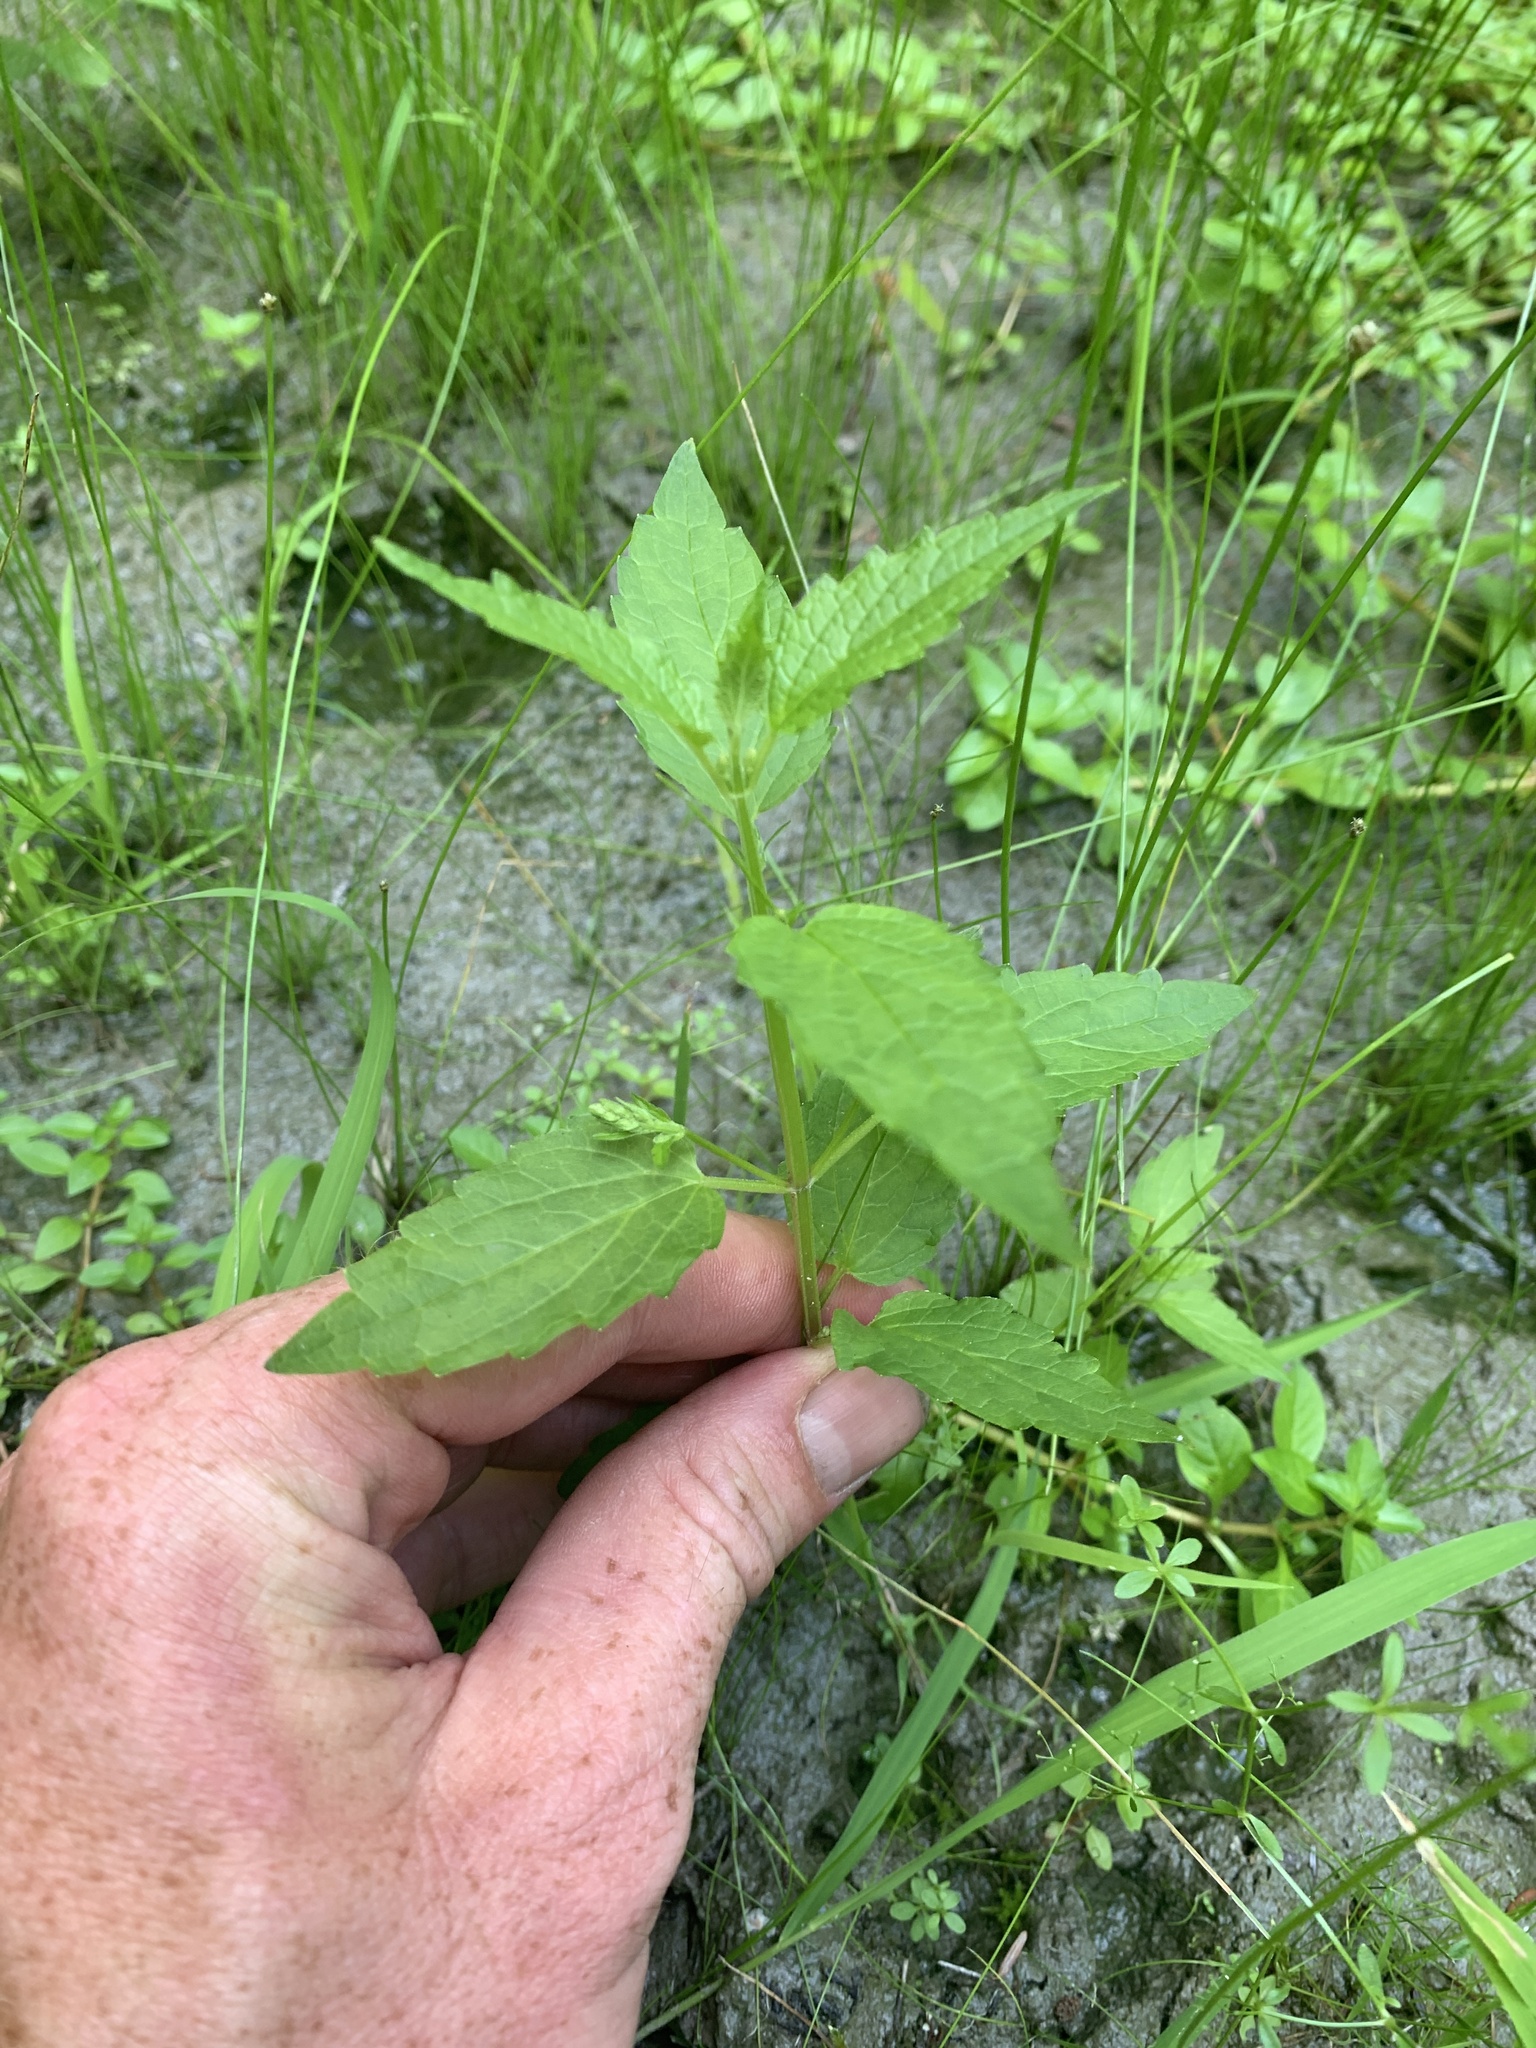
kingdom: Plantae
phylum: Tracheophyta
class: Magnoliopsida
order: Lamiales
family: Lamiaceae
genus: Scutellaria
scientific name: Scutellaria lateriflora
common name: Blue skullcap
